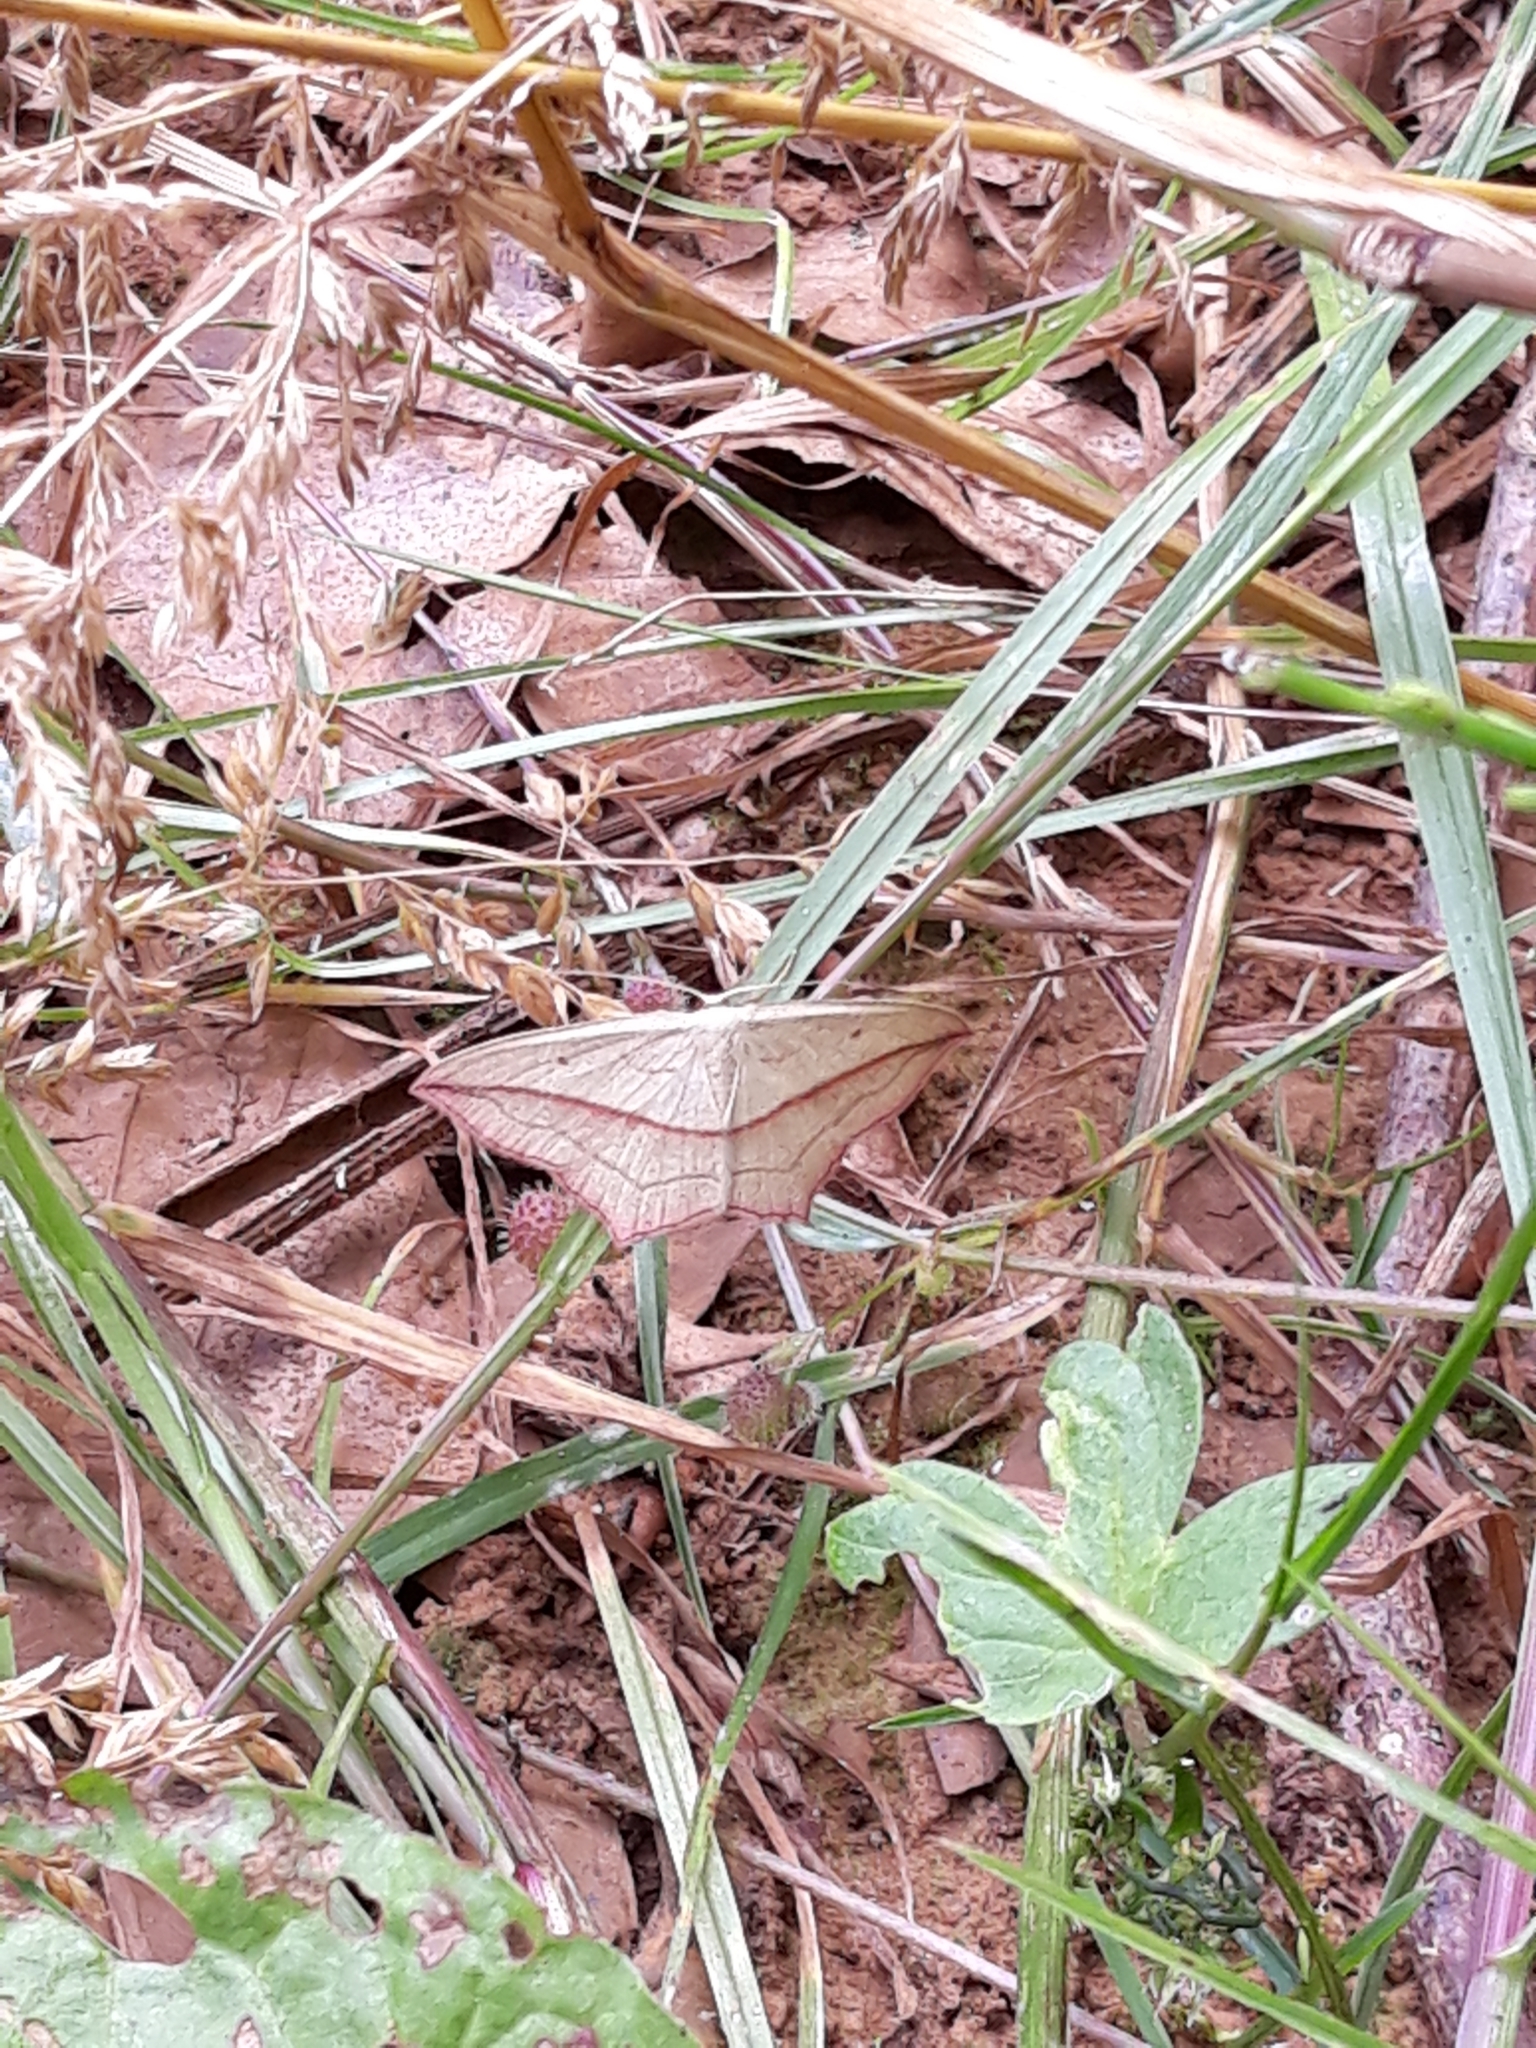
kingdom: Animalia
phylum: Arthropoda
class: Insecta
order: Lepidoptera
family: Geometridae
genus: Timandra
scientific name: Timandra comae
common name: Blood-vein
